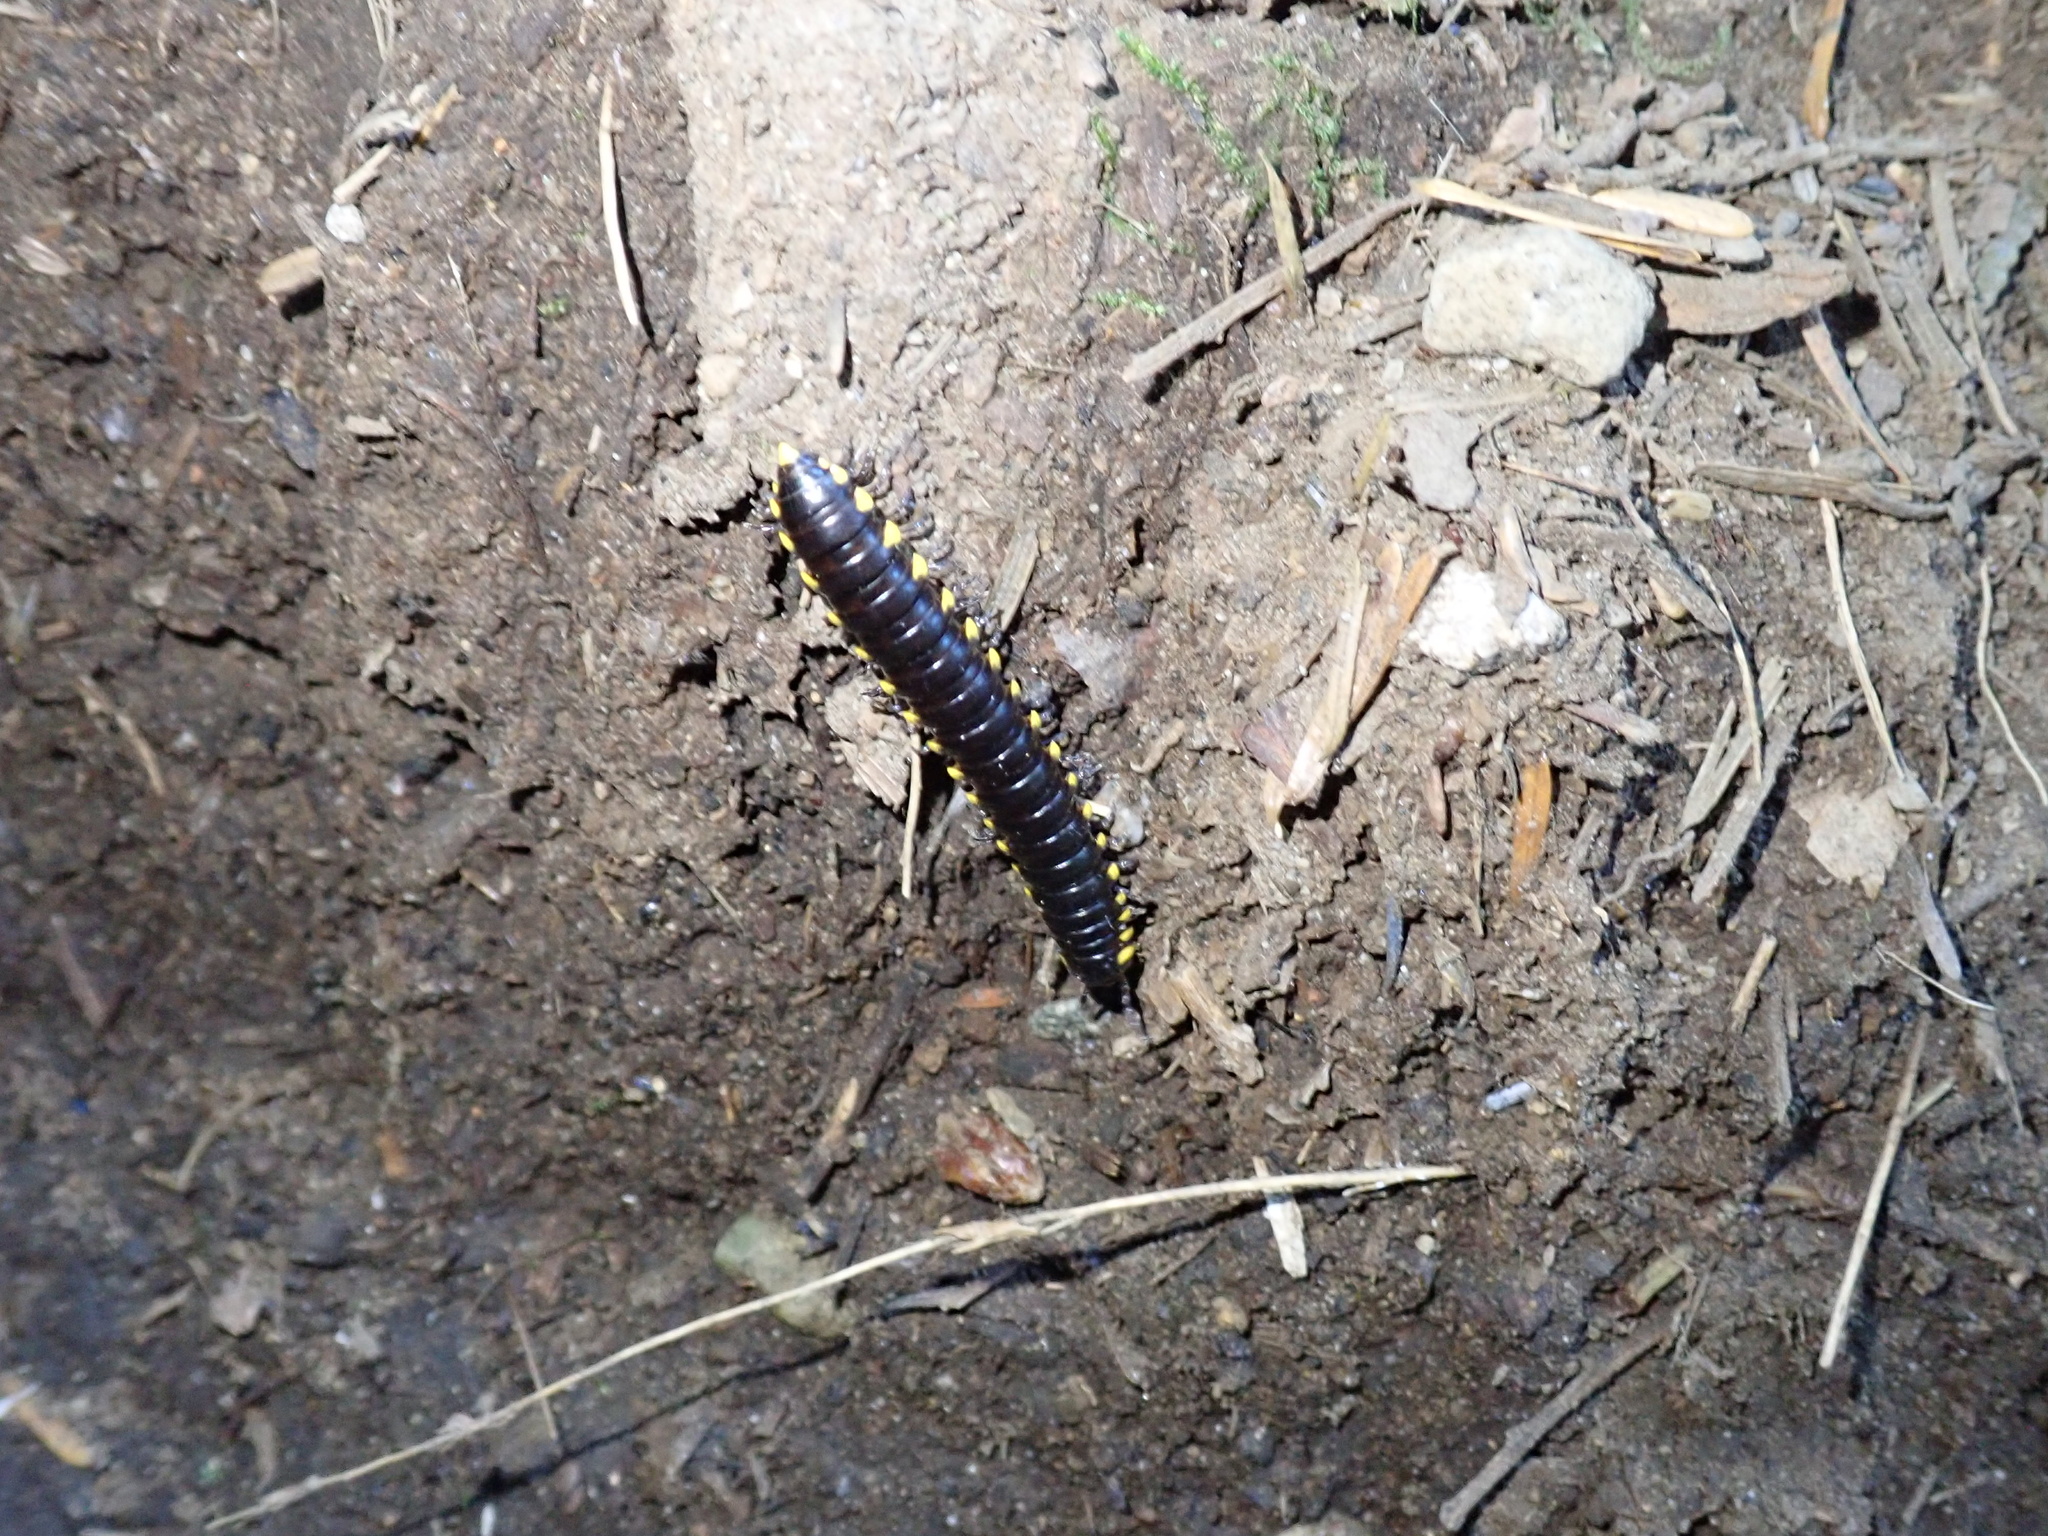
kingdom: Animalia
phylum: Arthropoda
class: Diplopoda
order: Polydesmida
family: Xystodesmidae
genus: Harpaphe
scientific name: Harpaphe haydeniana
